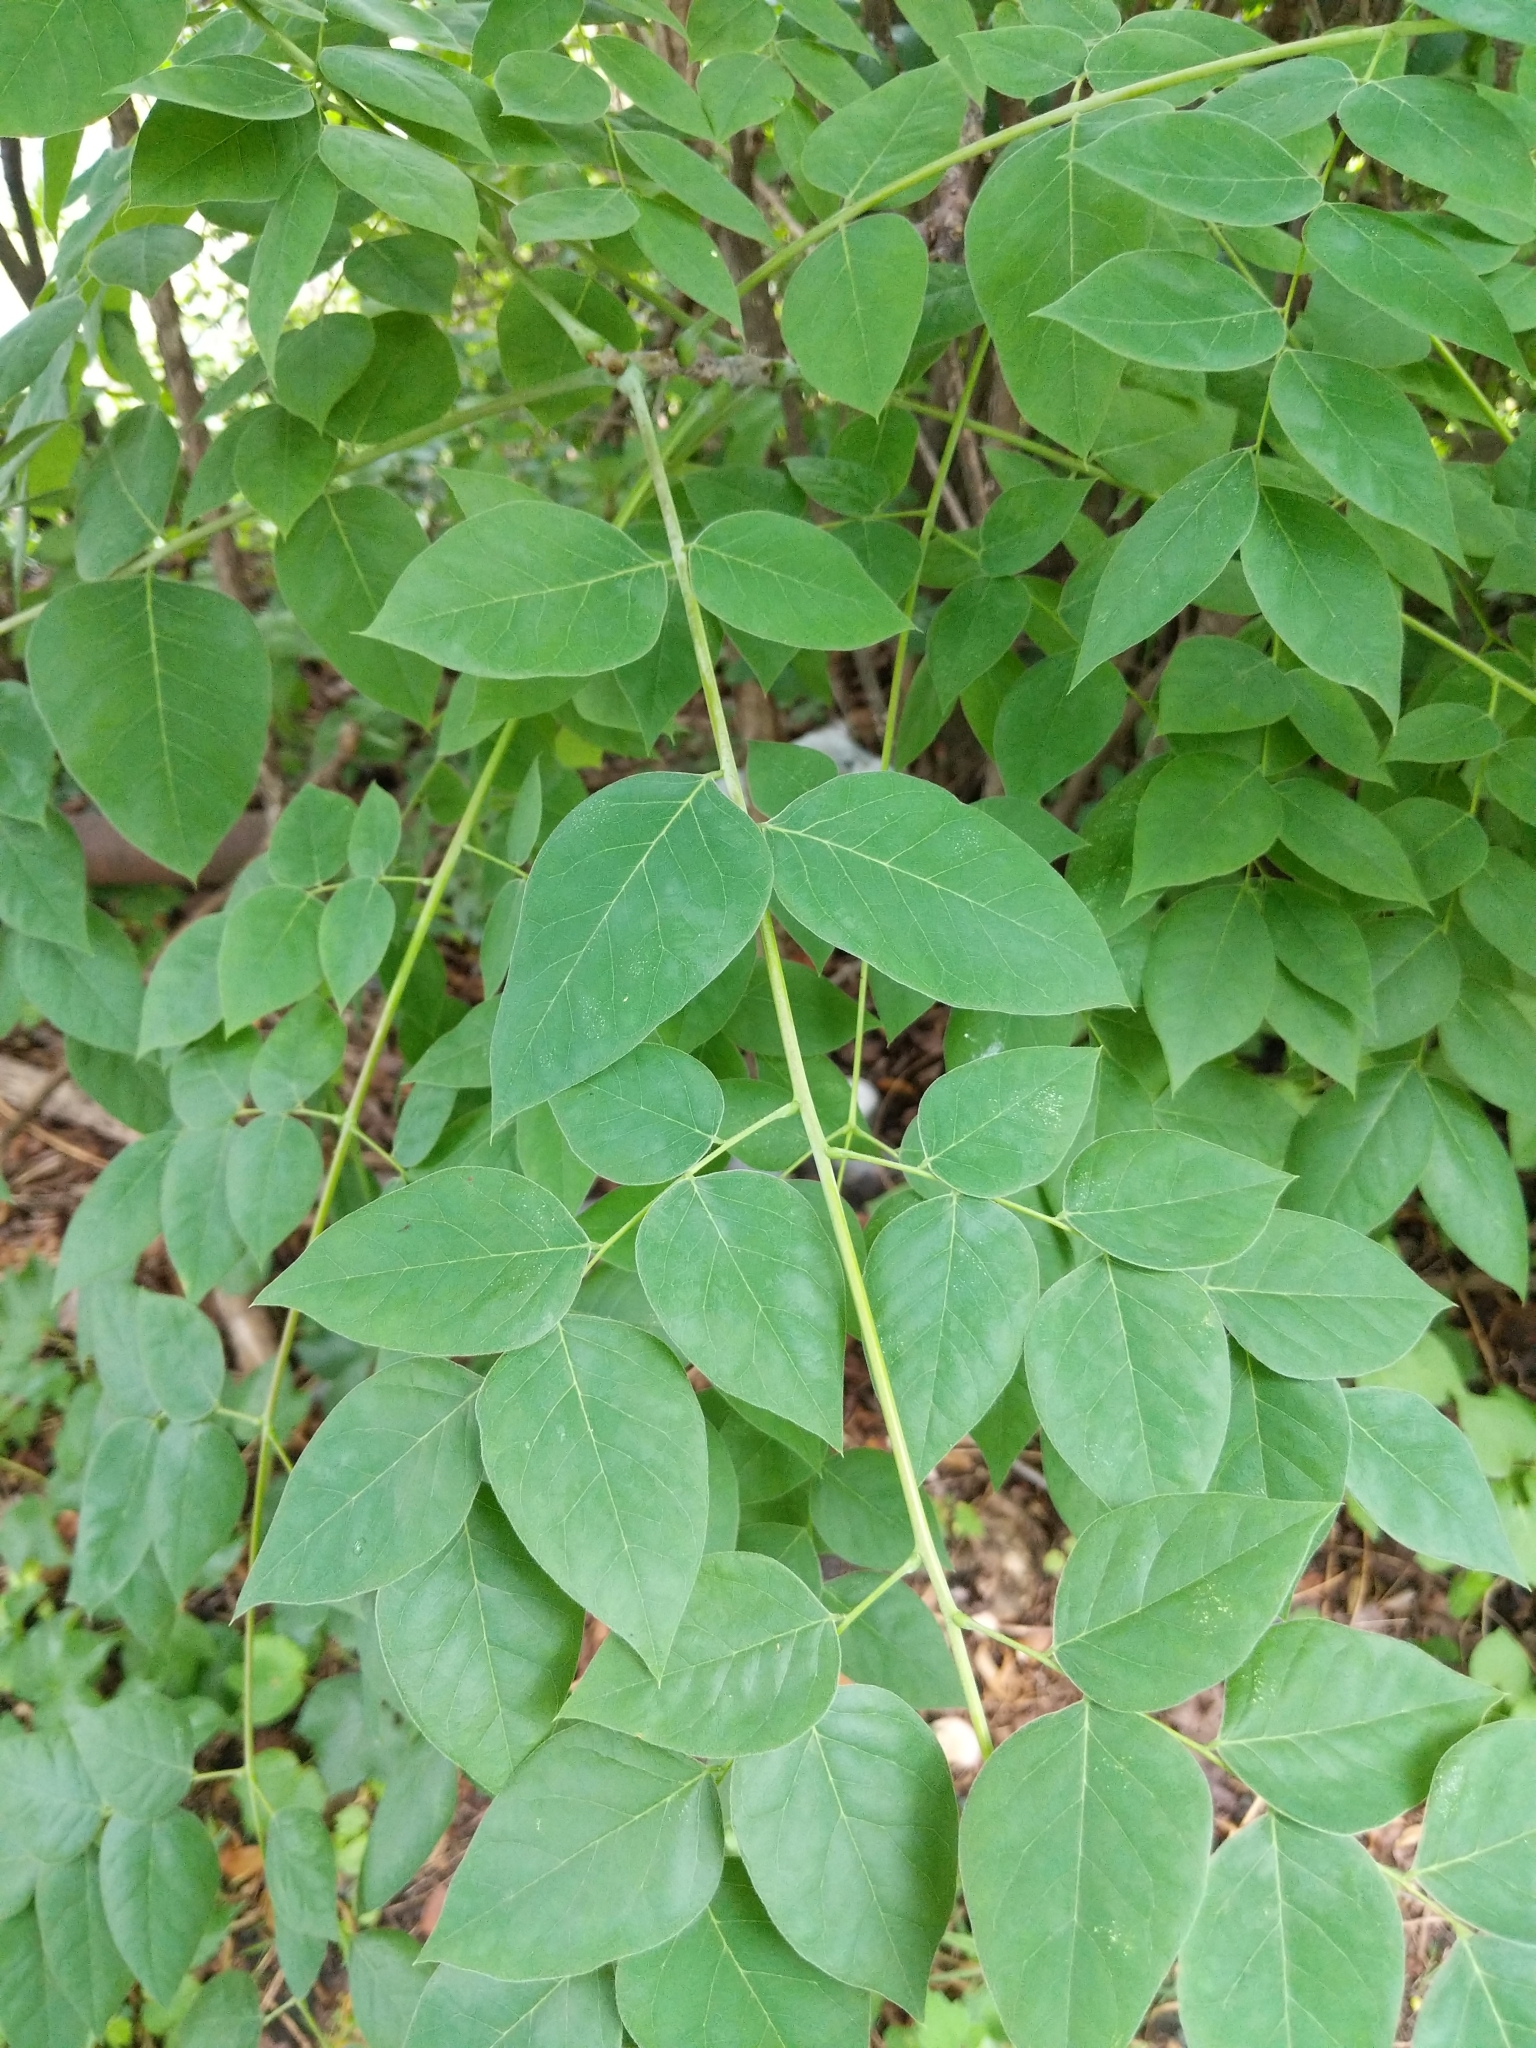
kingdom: Plantae
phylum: Tracheophyta
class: Magnoliopsida
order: Fabales
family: Fabaceae
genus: Gymnocladus
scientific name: Gymnocladus dioicus
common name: Kentucky coffee-tree
